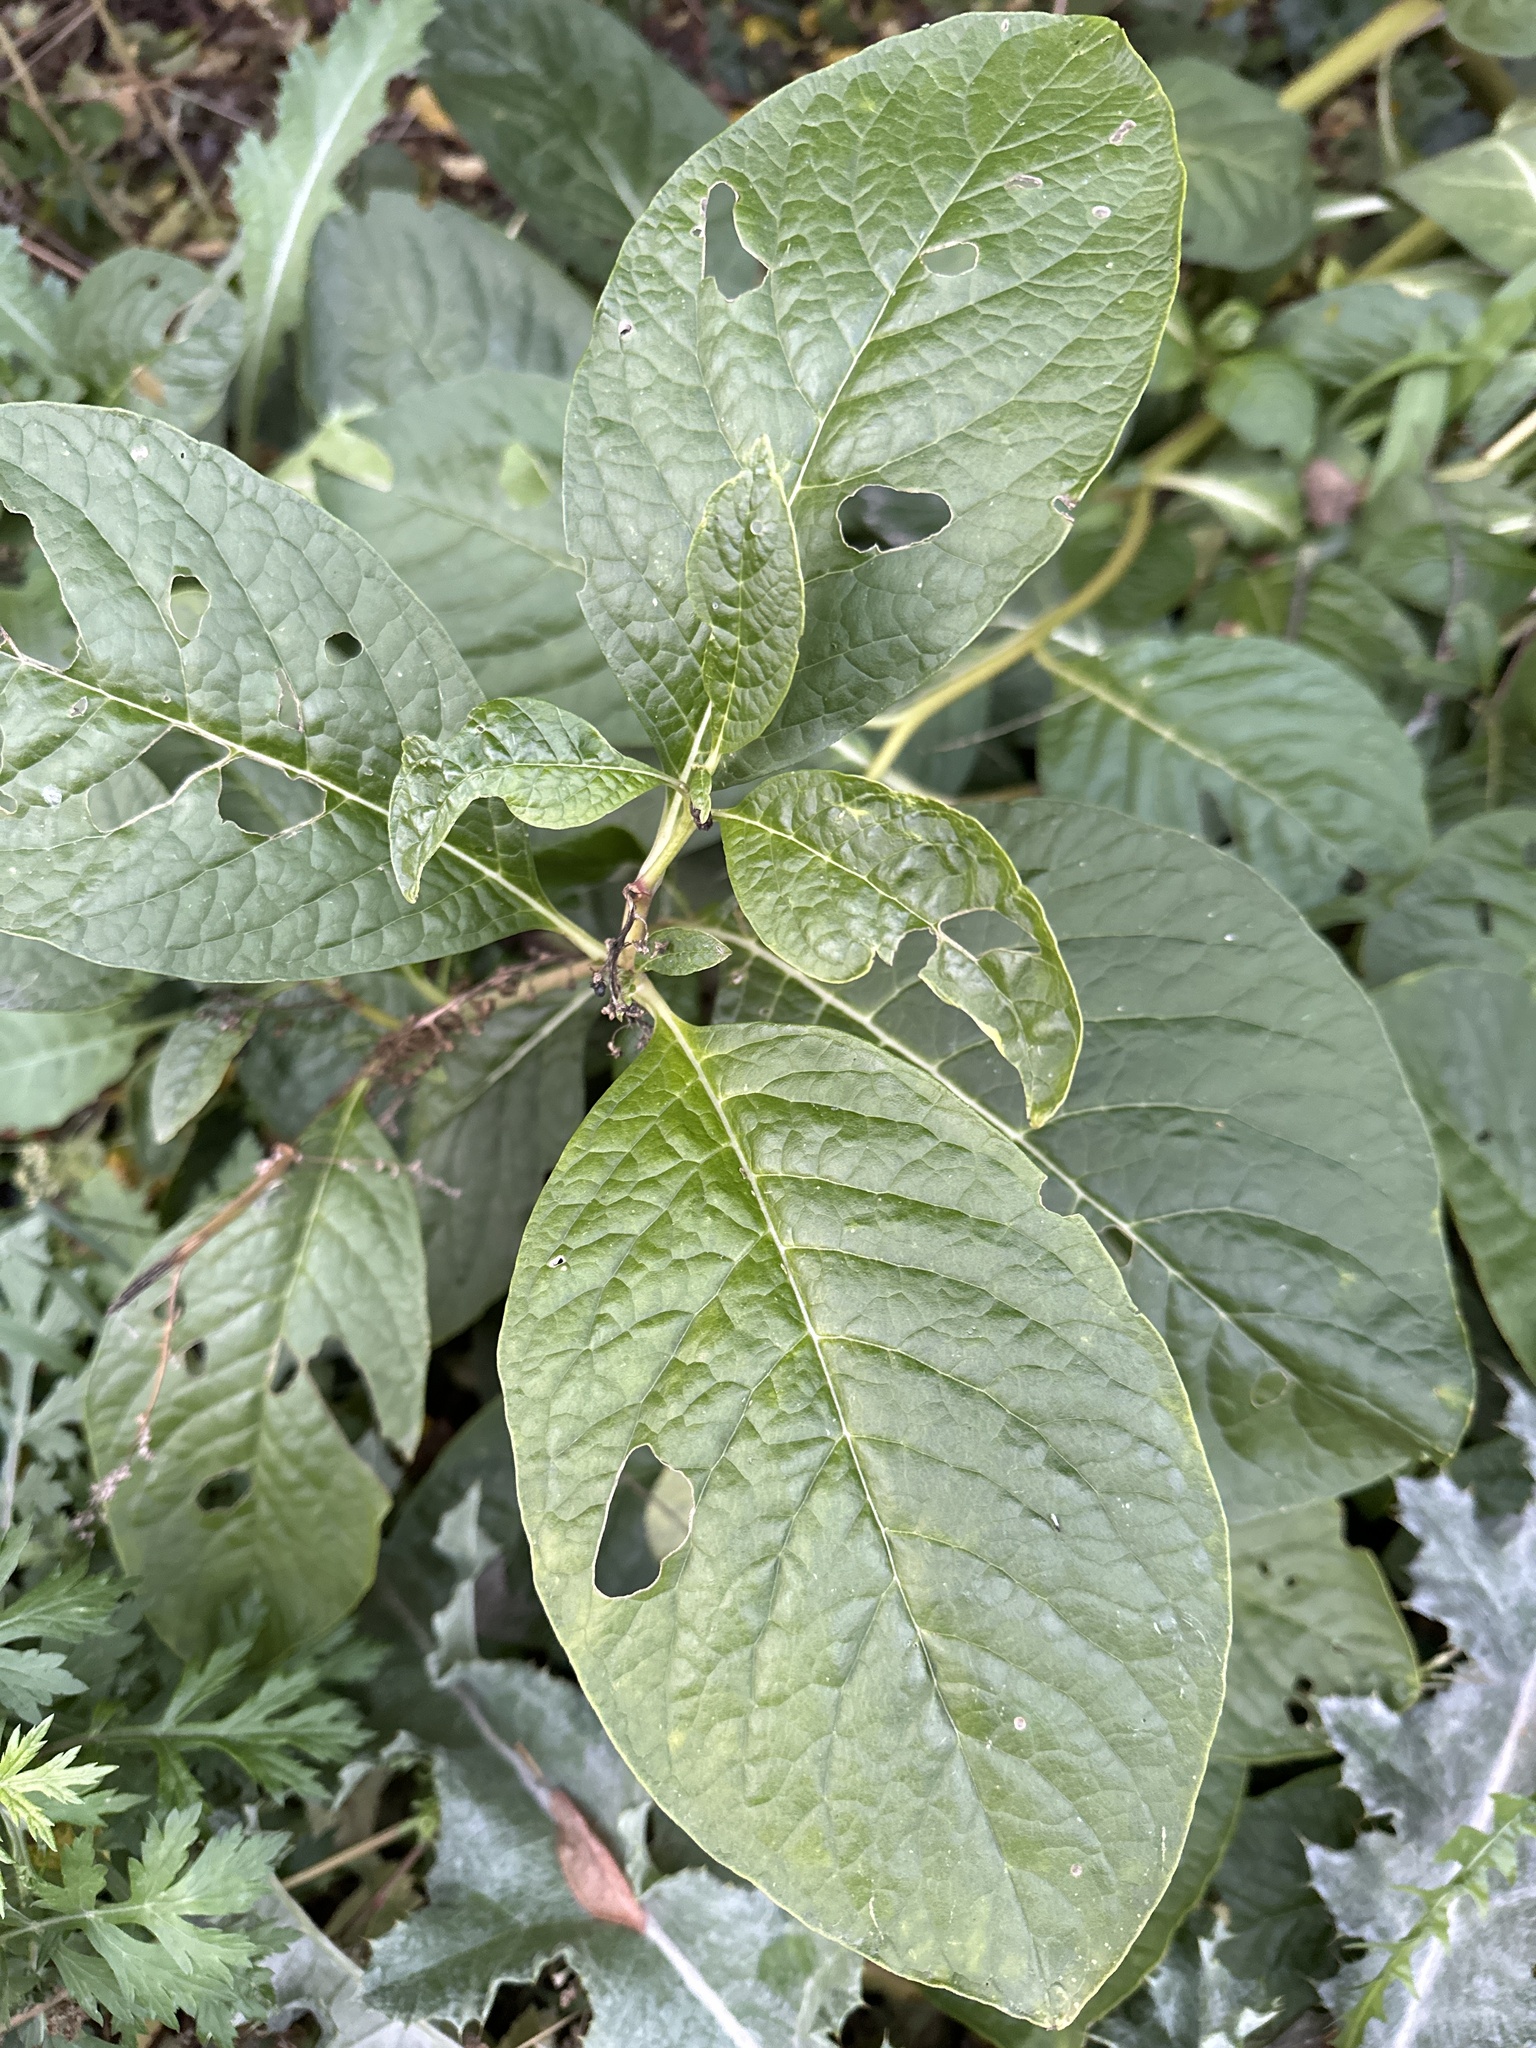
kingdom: Plantae
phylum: Tracheophyta
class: Magnoliopsida
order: Caryophyllales
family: Phytolaccaceae
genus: Phytolacca
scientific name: Phytolacca acinosa
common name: Indian pokeweed
